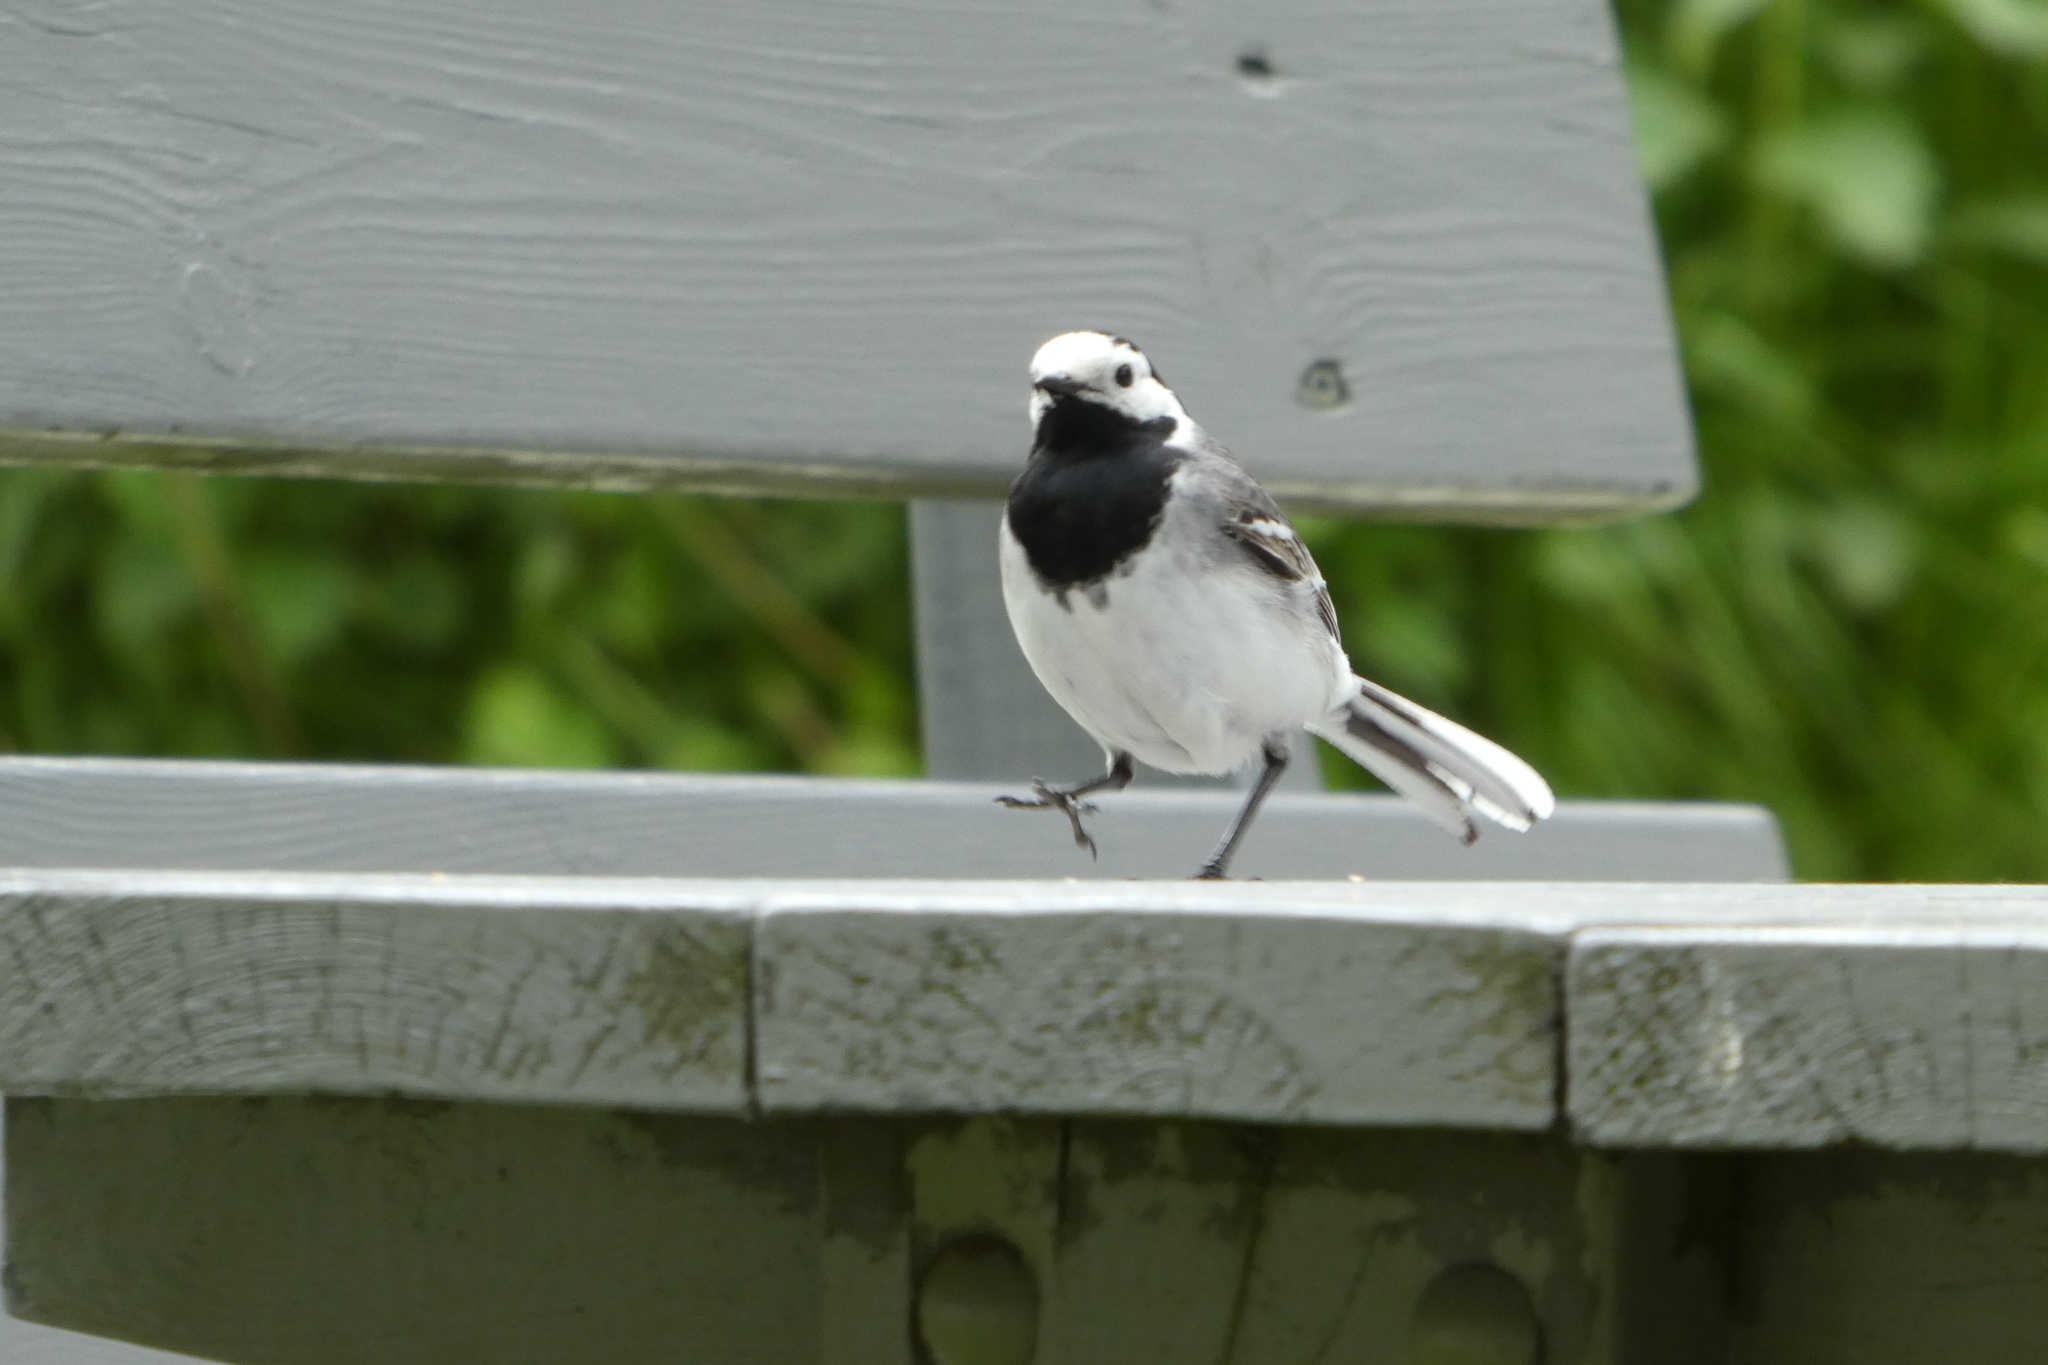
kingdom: Animalia
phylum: Chordata
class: Aves
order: Passeriformes
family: Motacillidae
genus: Motacilla
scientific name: Motacilla alba
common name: White wagtail
